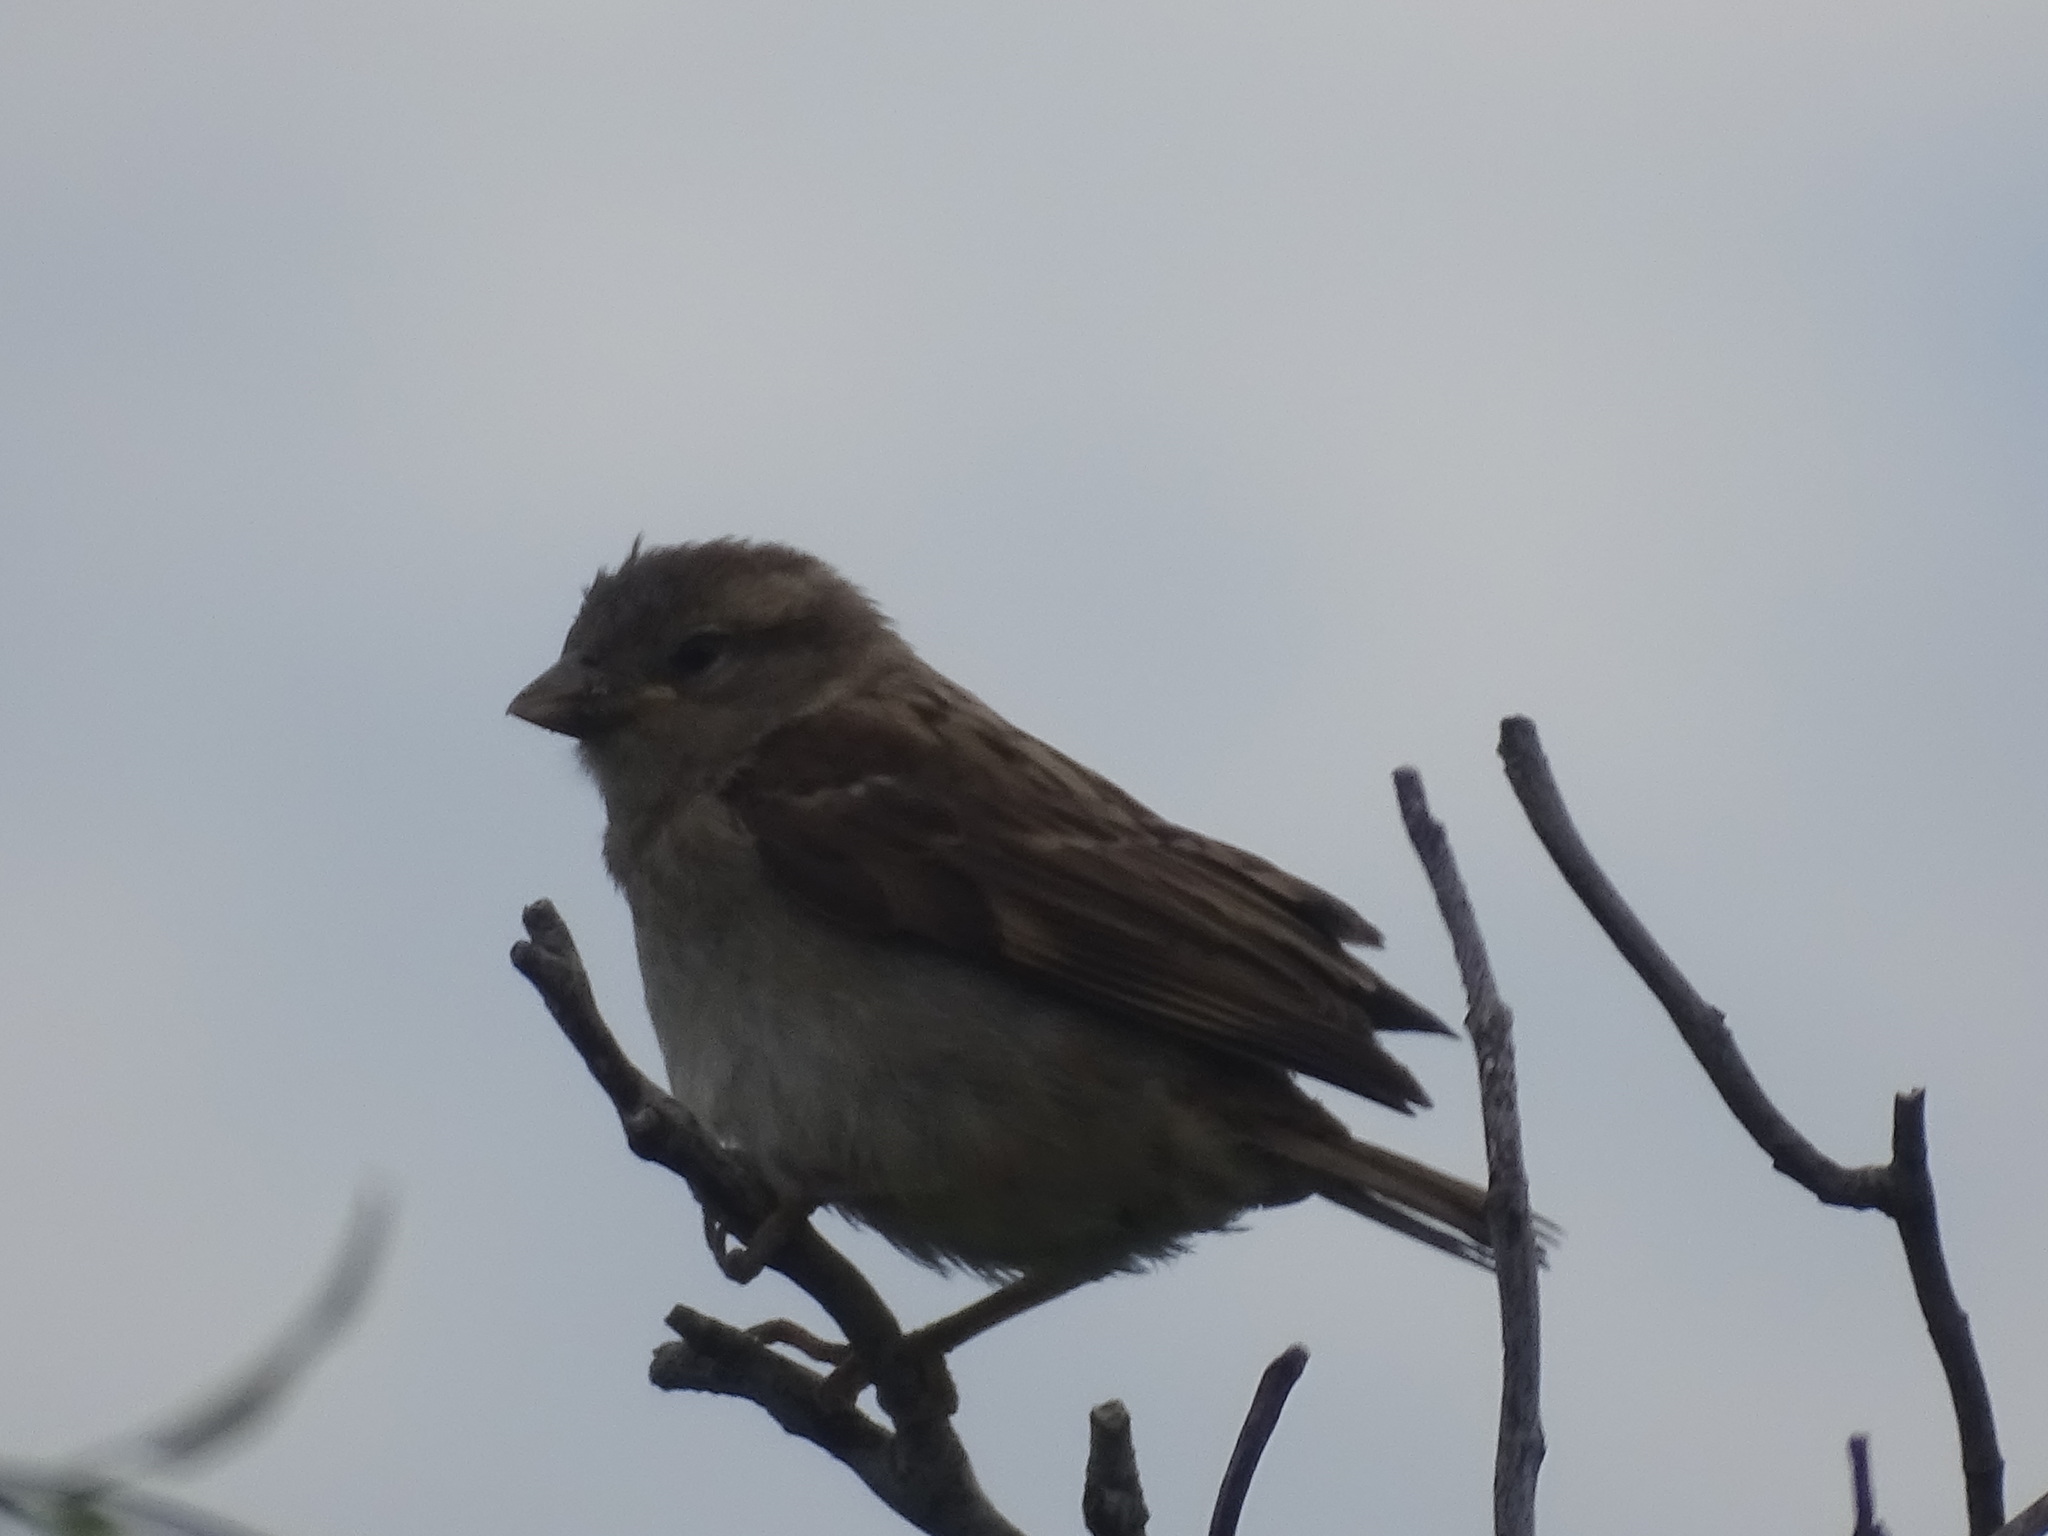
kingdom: Animalia
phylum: Chordata
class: Aves
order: Passeriformes
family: Passeridae
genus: Passer
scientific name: Passer domesticus
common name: House sparrow
